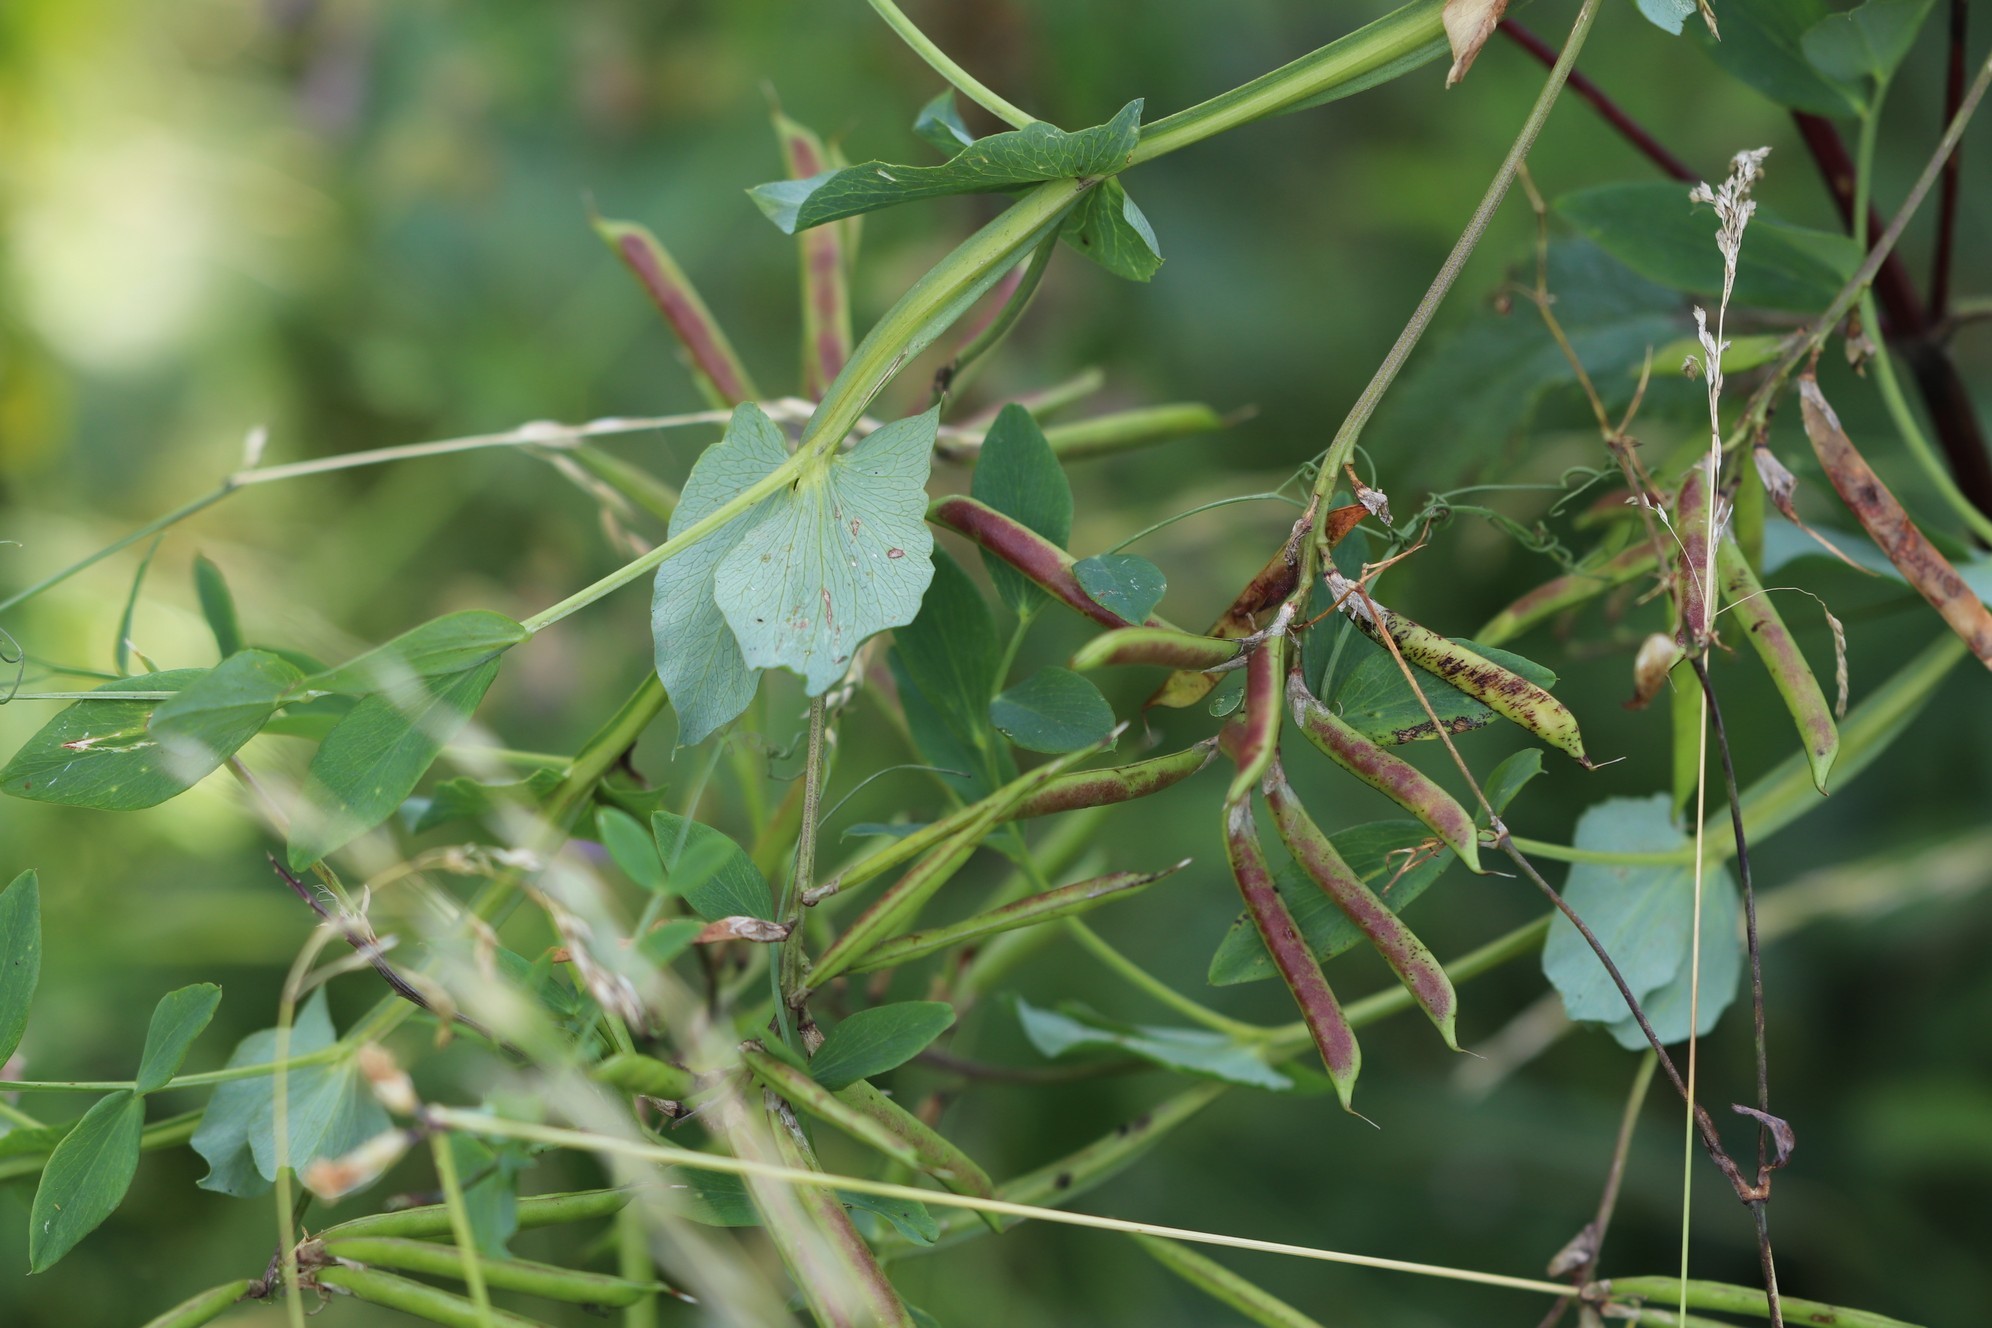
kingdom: Plantae
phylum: Tracheophyta
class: Magnoliopsida
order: Fabales
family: Fabaceae
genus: Lathyrus
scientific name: Lathyrus pisiformis
